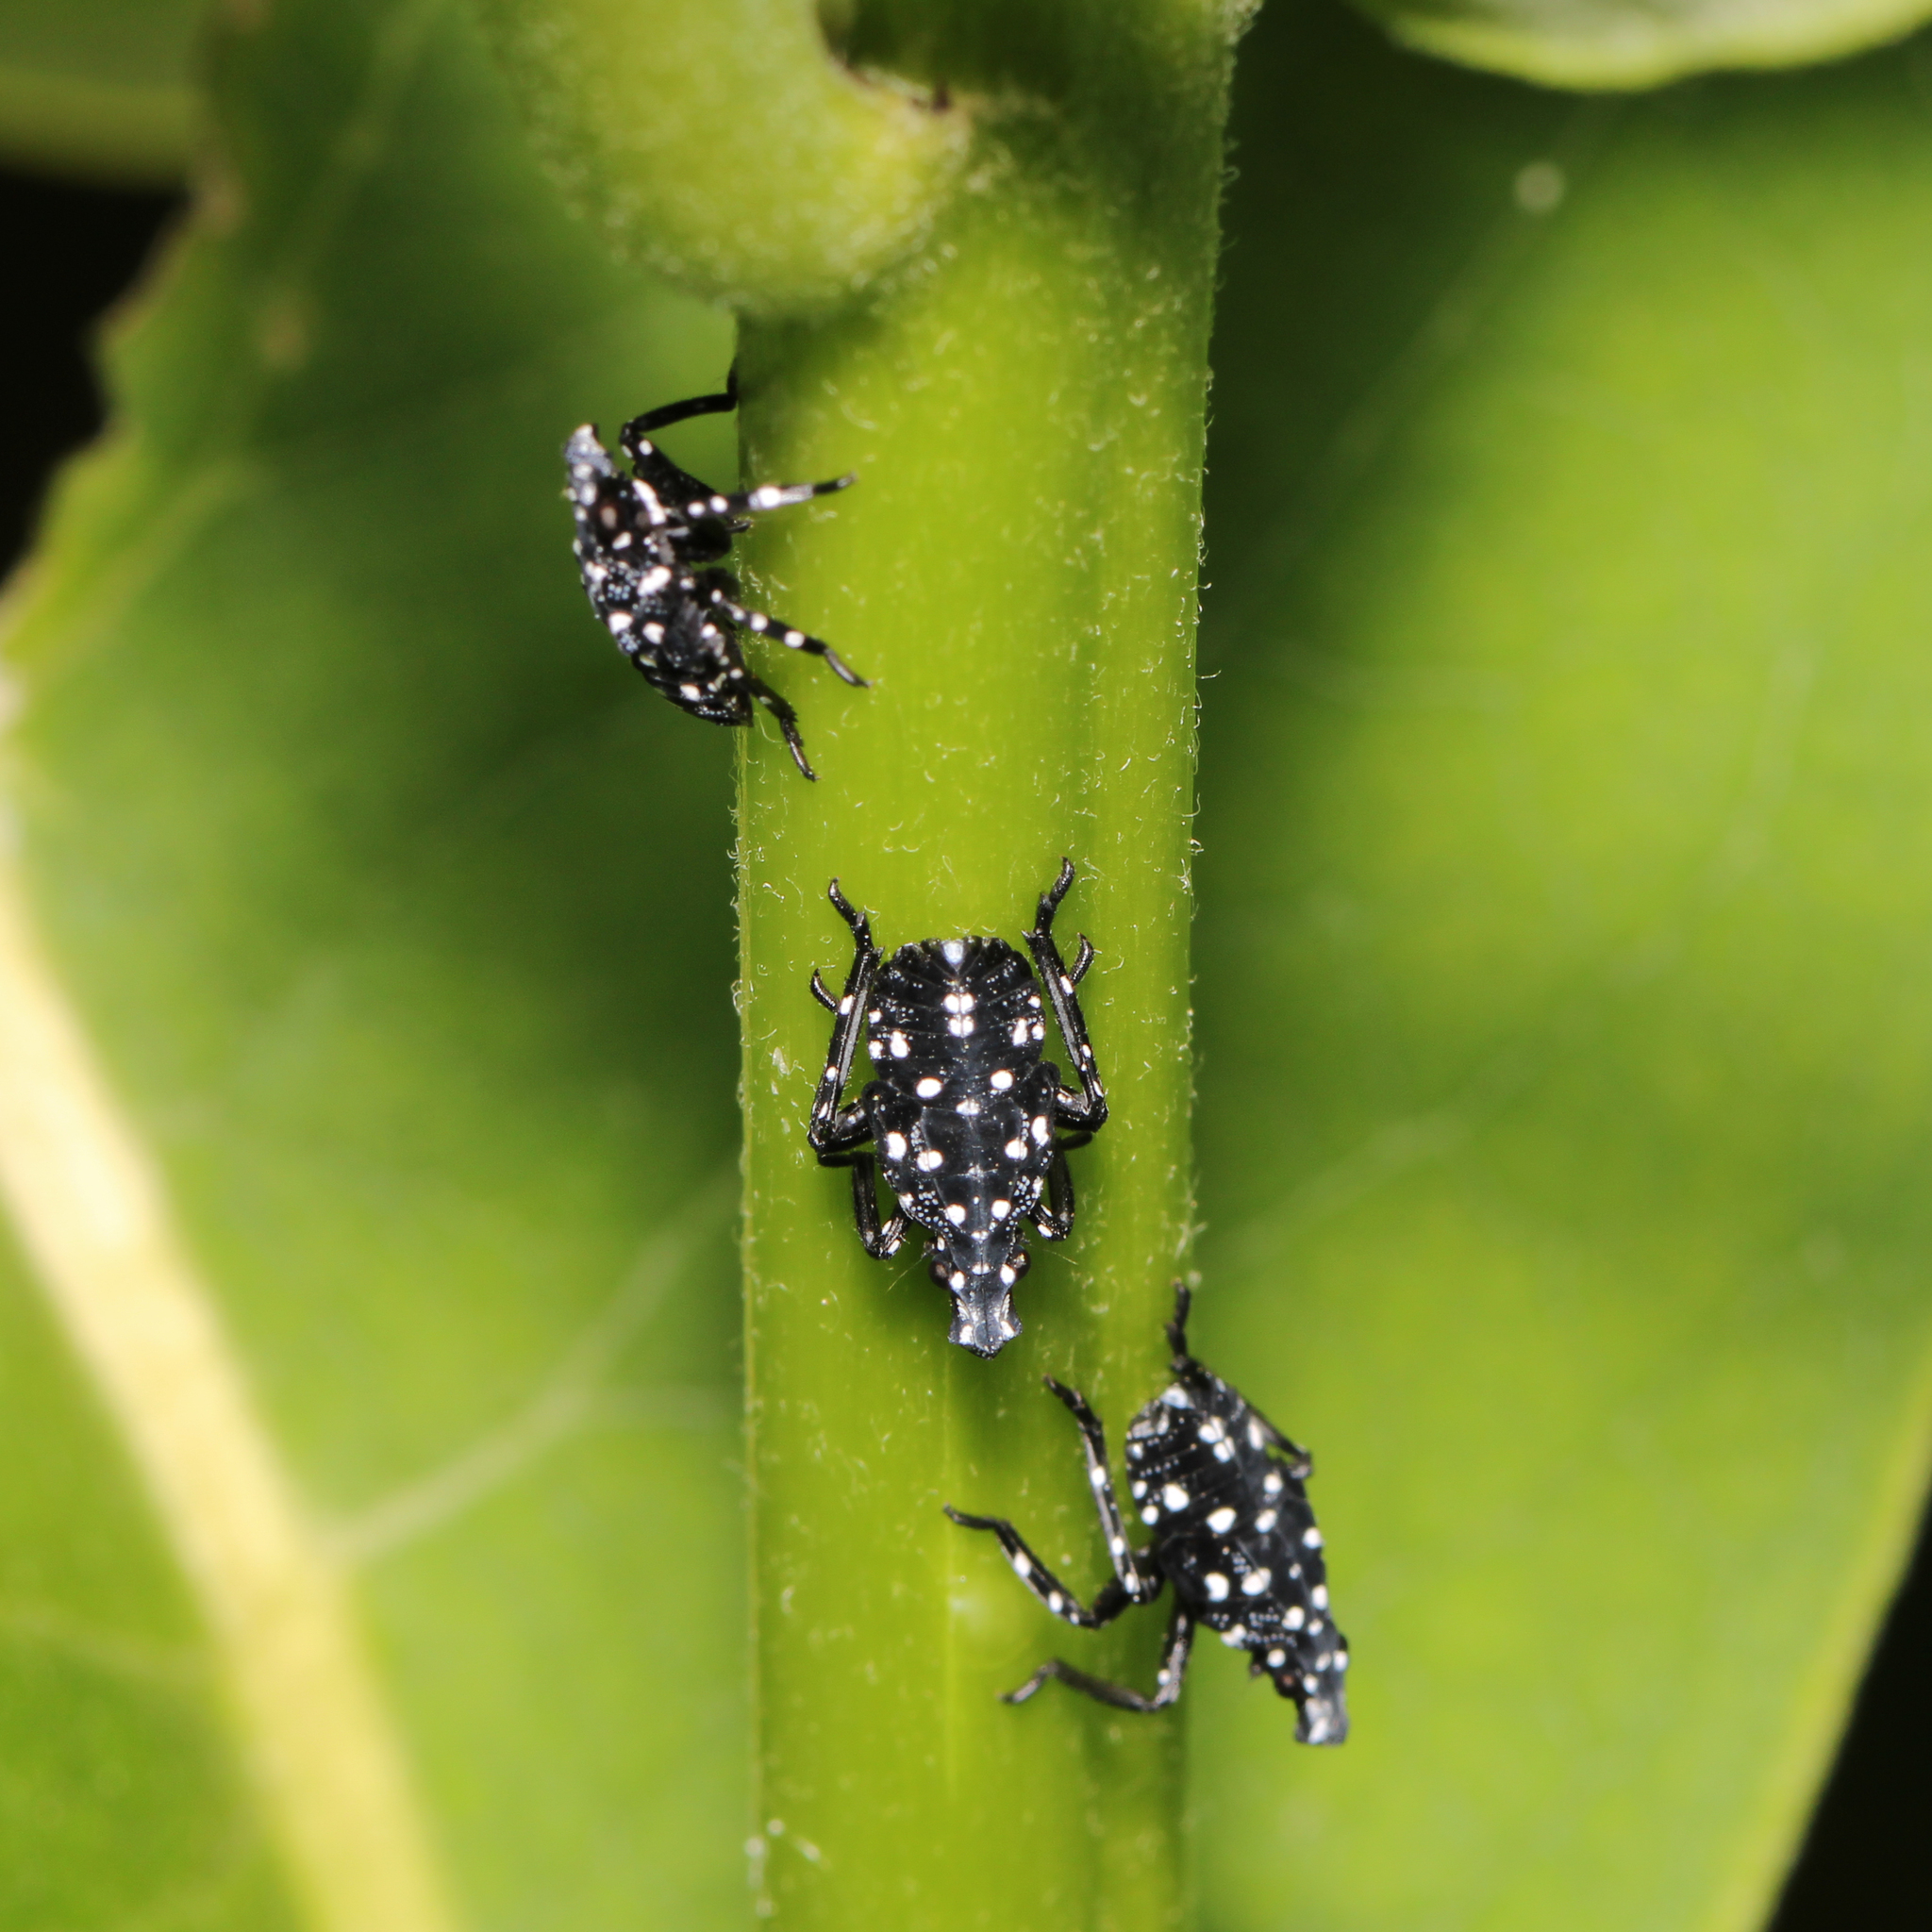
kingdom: Animalia
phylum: Arthropoda
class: Insecta
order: Hemiptera
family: Fulgoridae
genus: Lycorma
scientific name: Lycorma delicatula
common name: Spotted lanternfly
